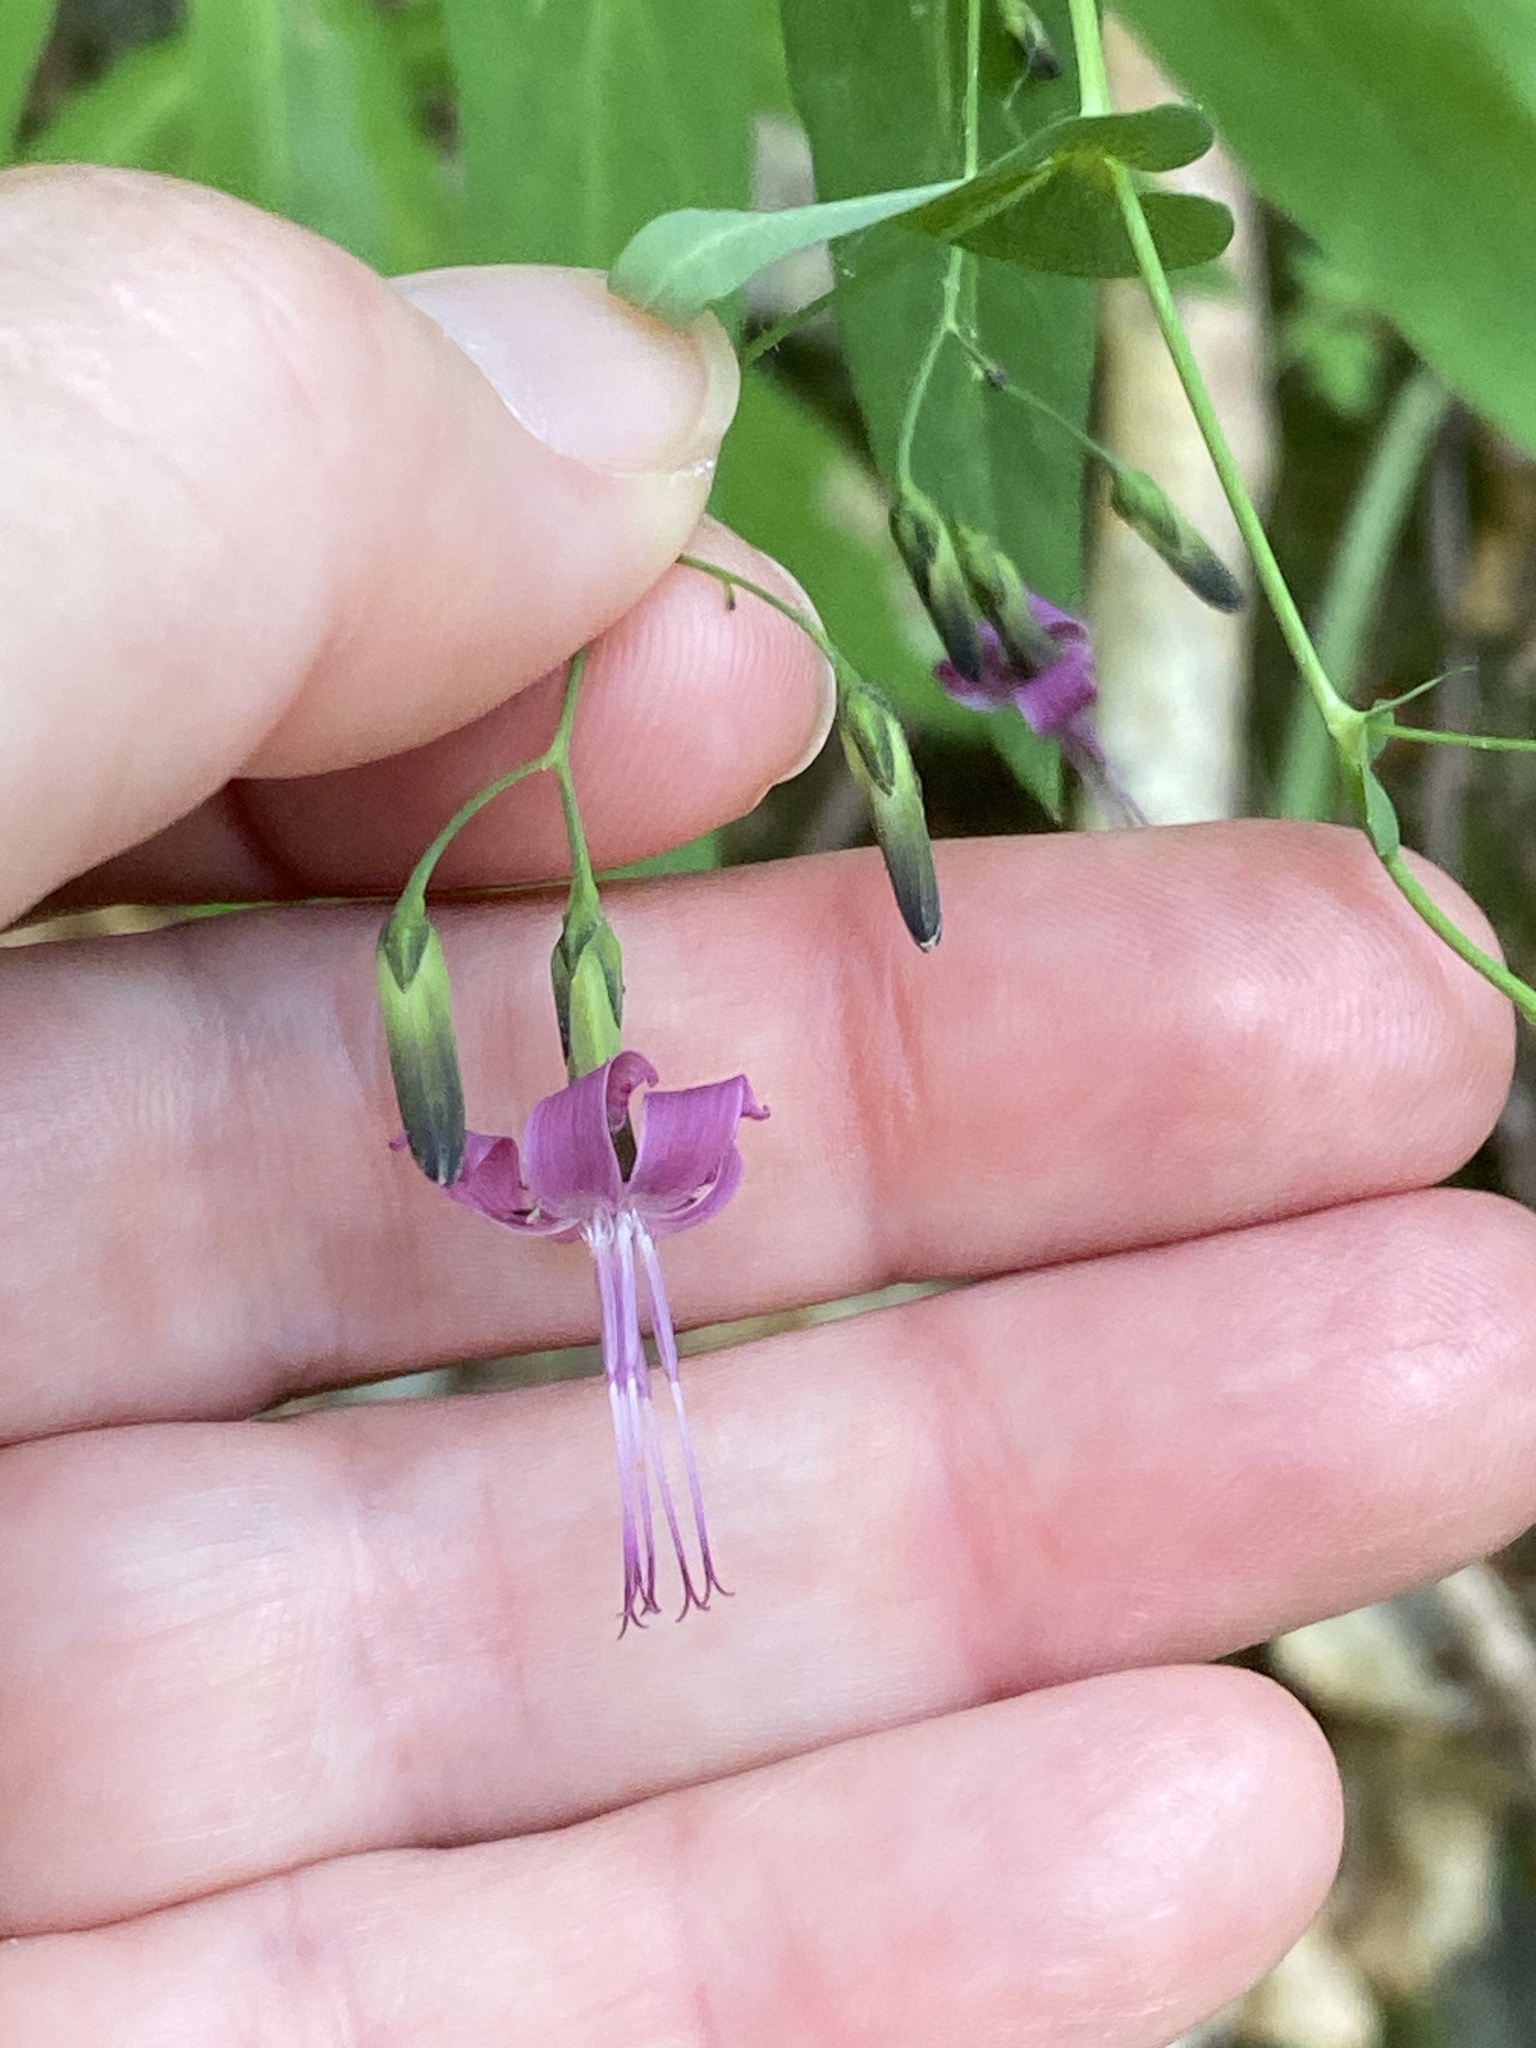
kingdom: Plantae
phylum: Tracheophyta
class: Magnoliopsida
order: Asterales
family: Asteraceae
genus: Prenanthes
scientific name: Prenanthes purpurea
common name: Purple lettuce
